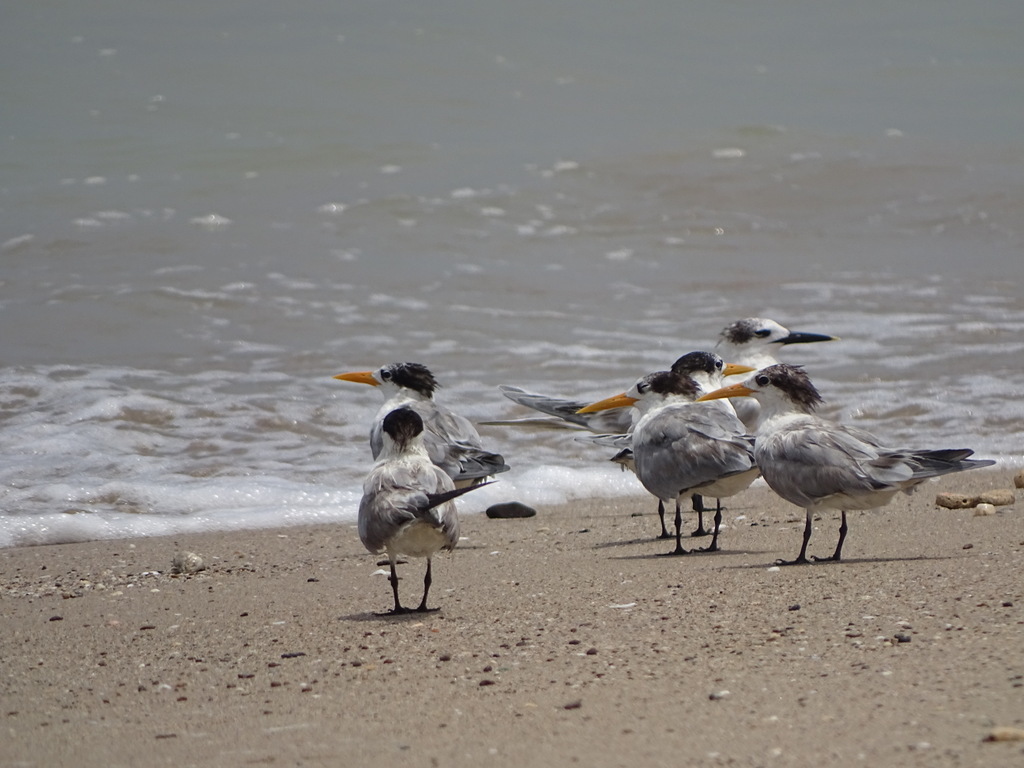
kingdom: Animalia
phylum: Chordata
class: Aves
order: Charadriiformes
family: Laridae
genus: Thalasseus
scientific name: Thalasseus bergii
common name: Greater crested tern
